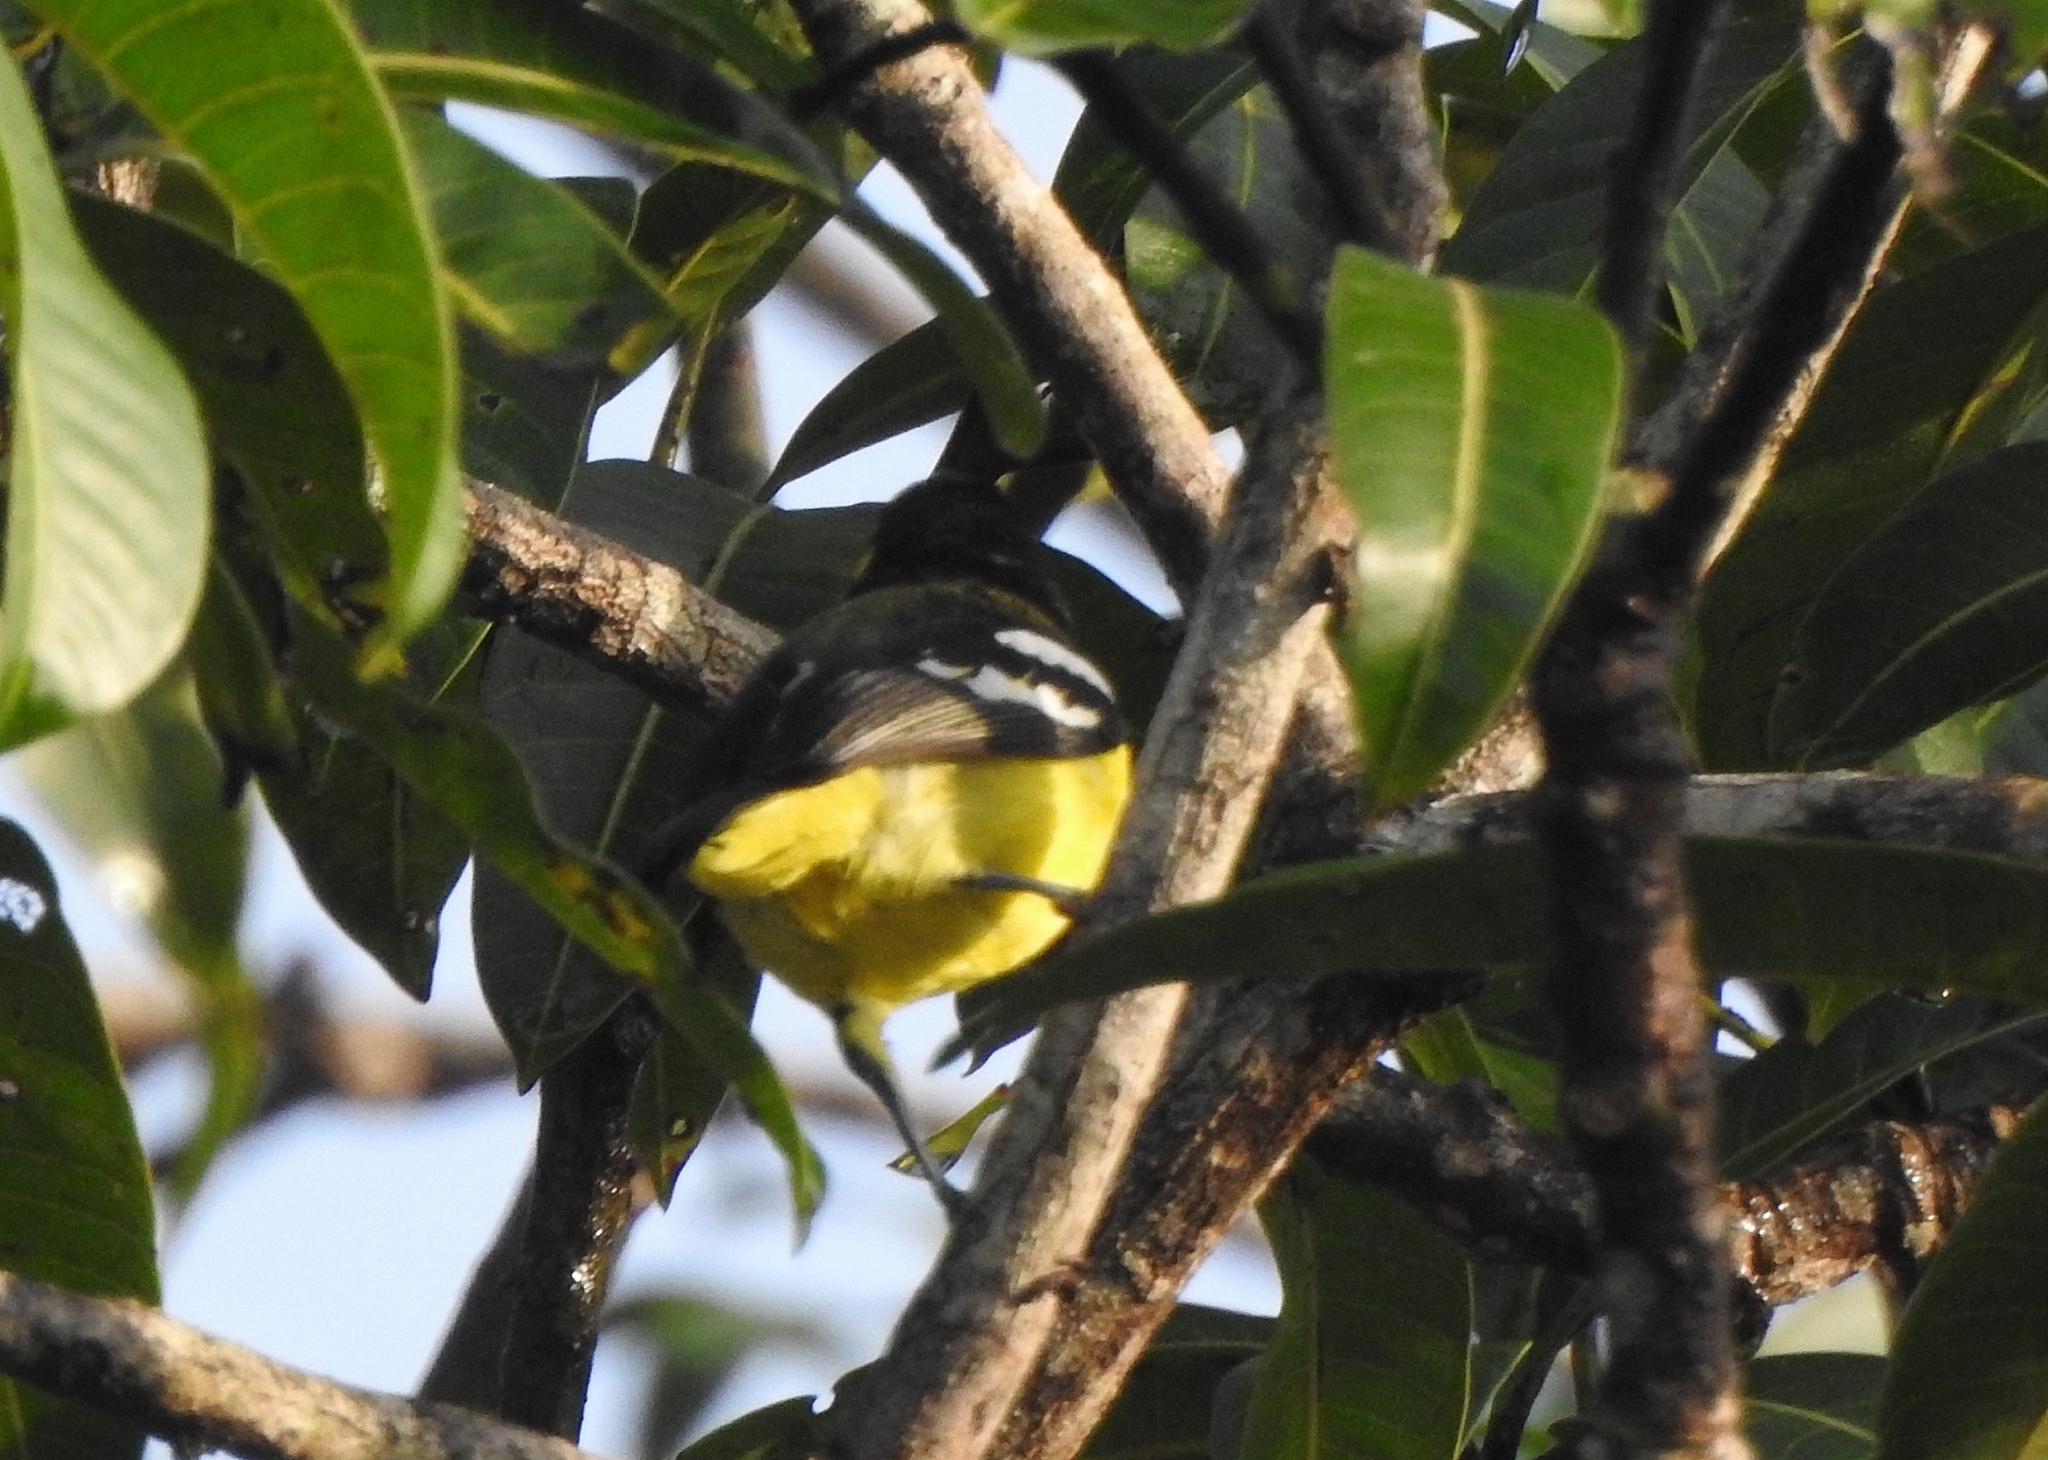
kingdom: Animalia
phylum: Chordata
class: Aves
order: Passeriformes
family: Aegithinidae
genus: Aegithina
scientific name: Aegithina tiphia
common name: Common iora
